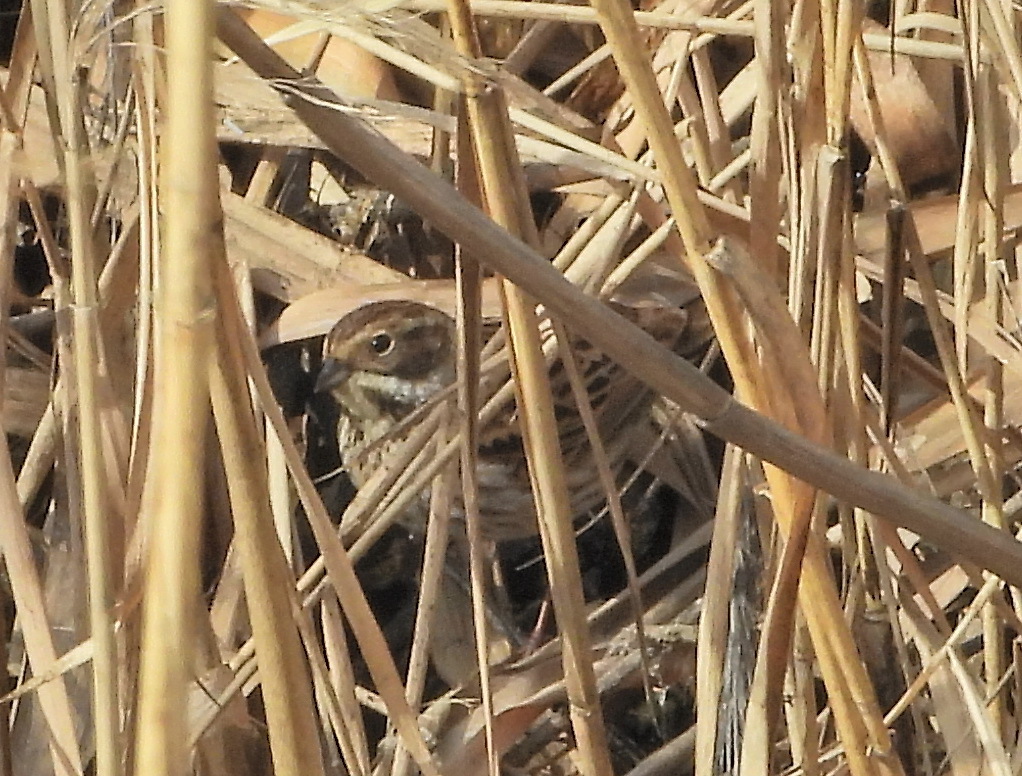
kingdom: Animalia
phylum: Chordata
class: Aves
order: Passeriformes
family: Emberizidae
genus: Emberiza
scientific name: Emberiza schoeniclus
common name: Reed bunting
